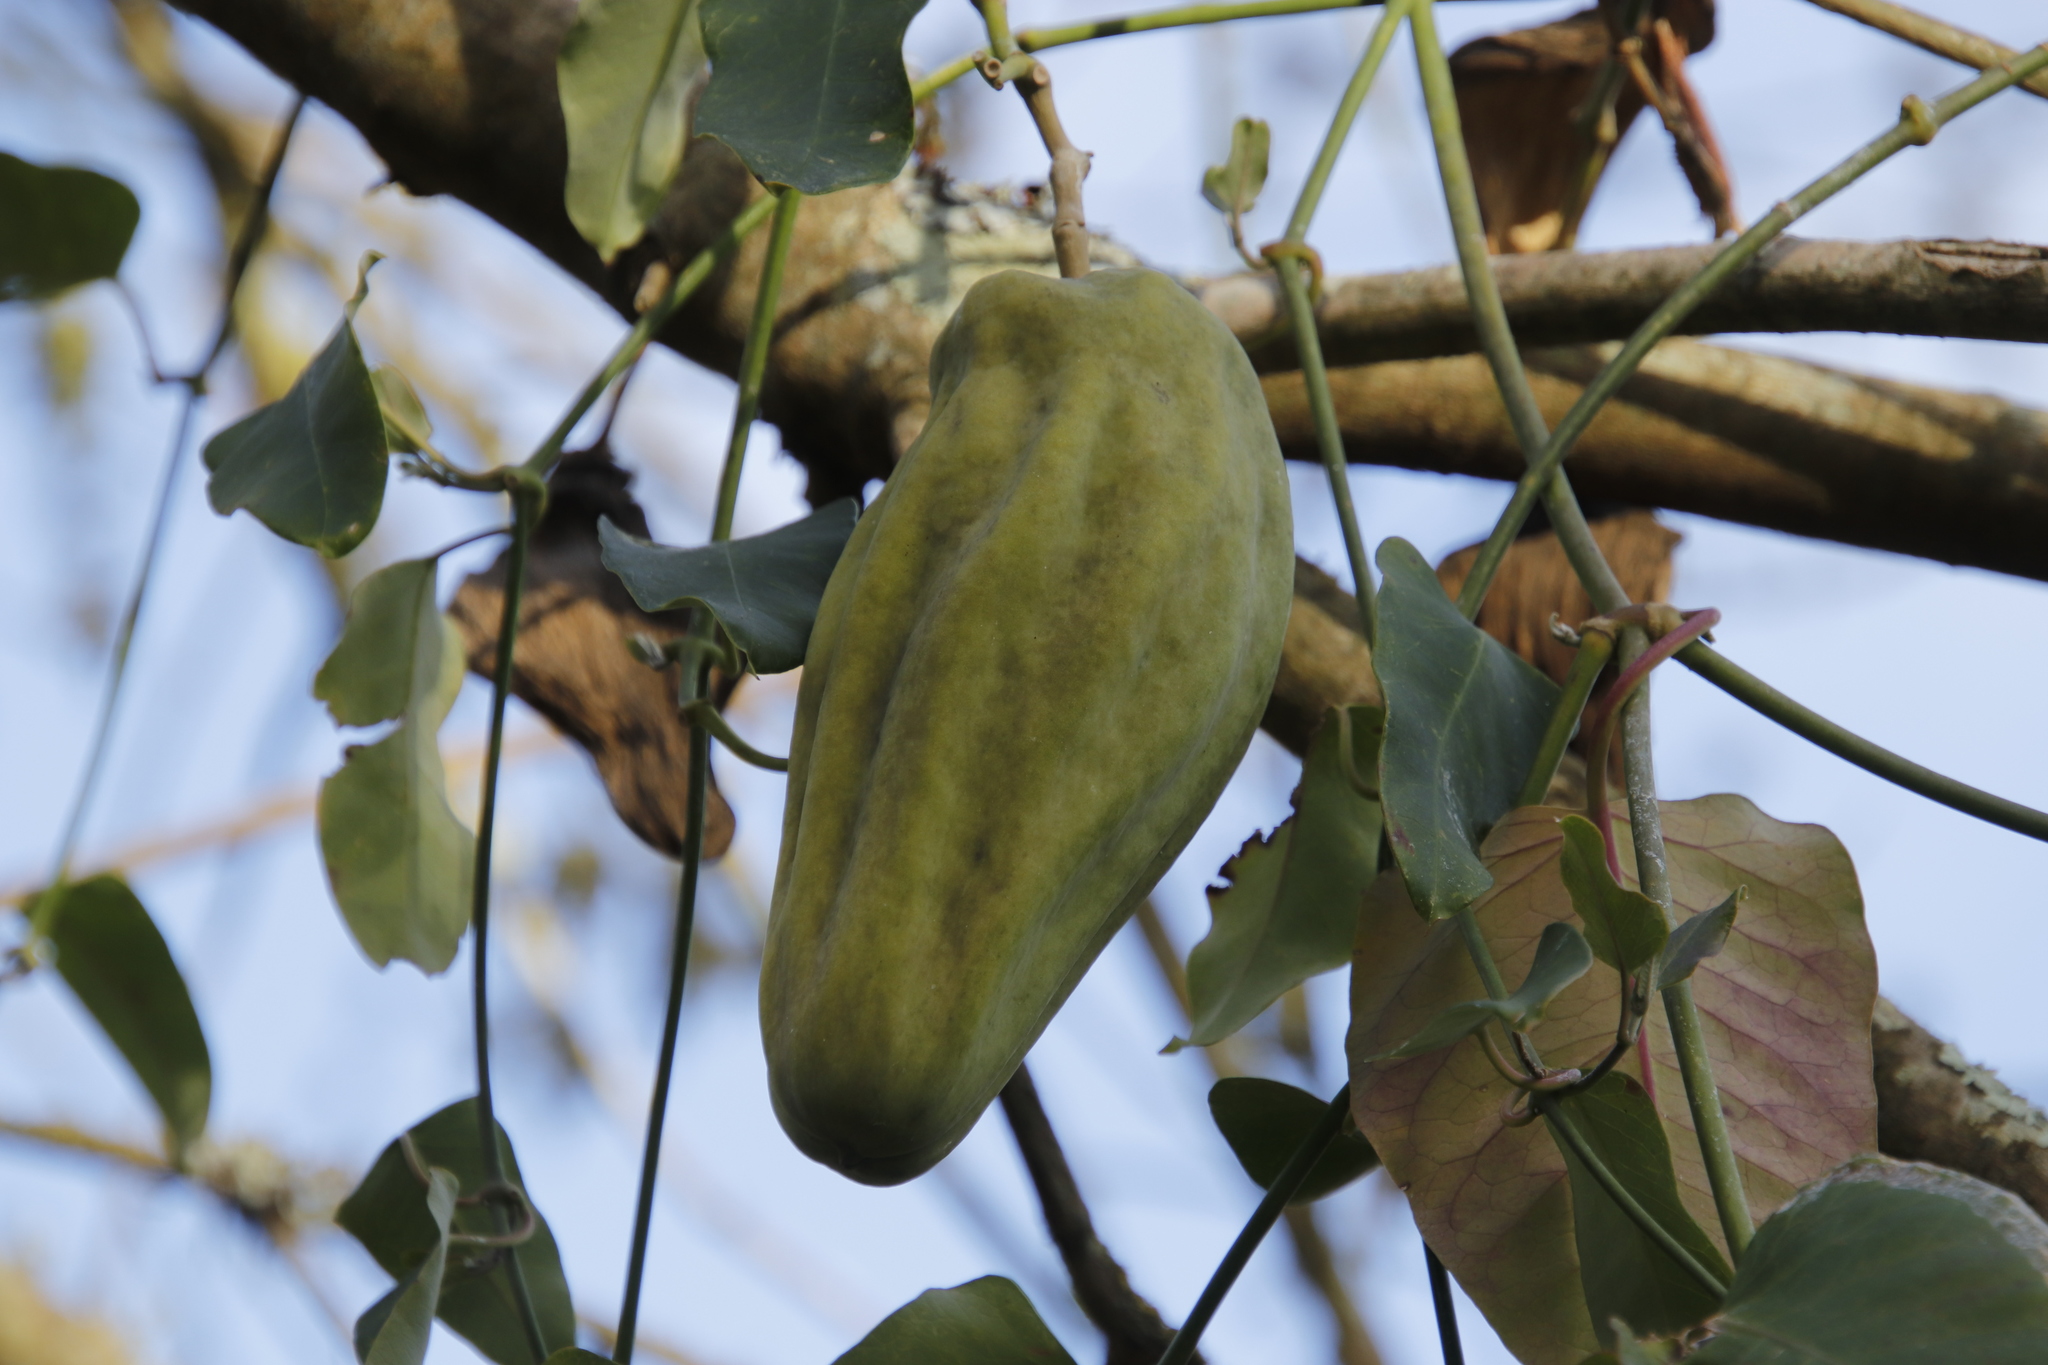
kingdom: Plantae
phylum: Tracheophyta
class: Magnoliopsida
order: Gentianales
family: Apocynaceae
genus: Araujia
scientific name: Araujia sericifera
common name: White bladderflower
